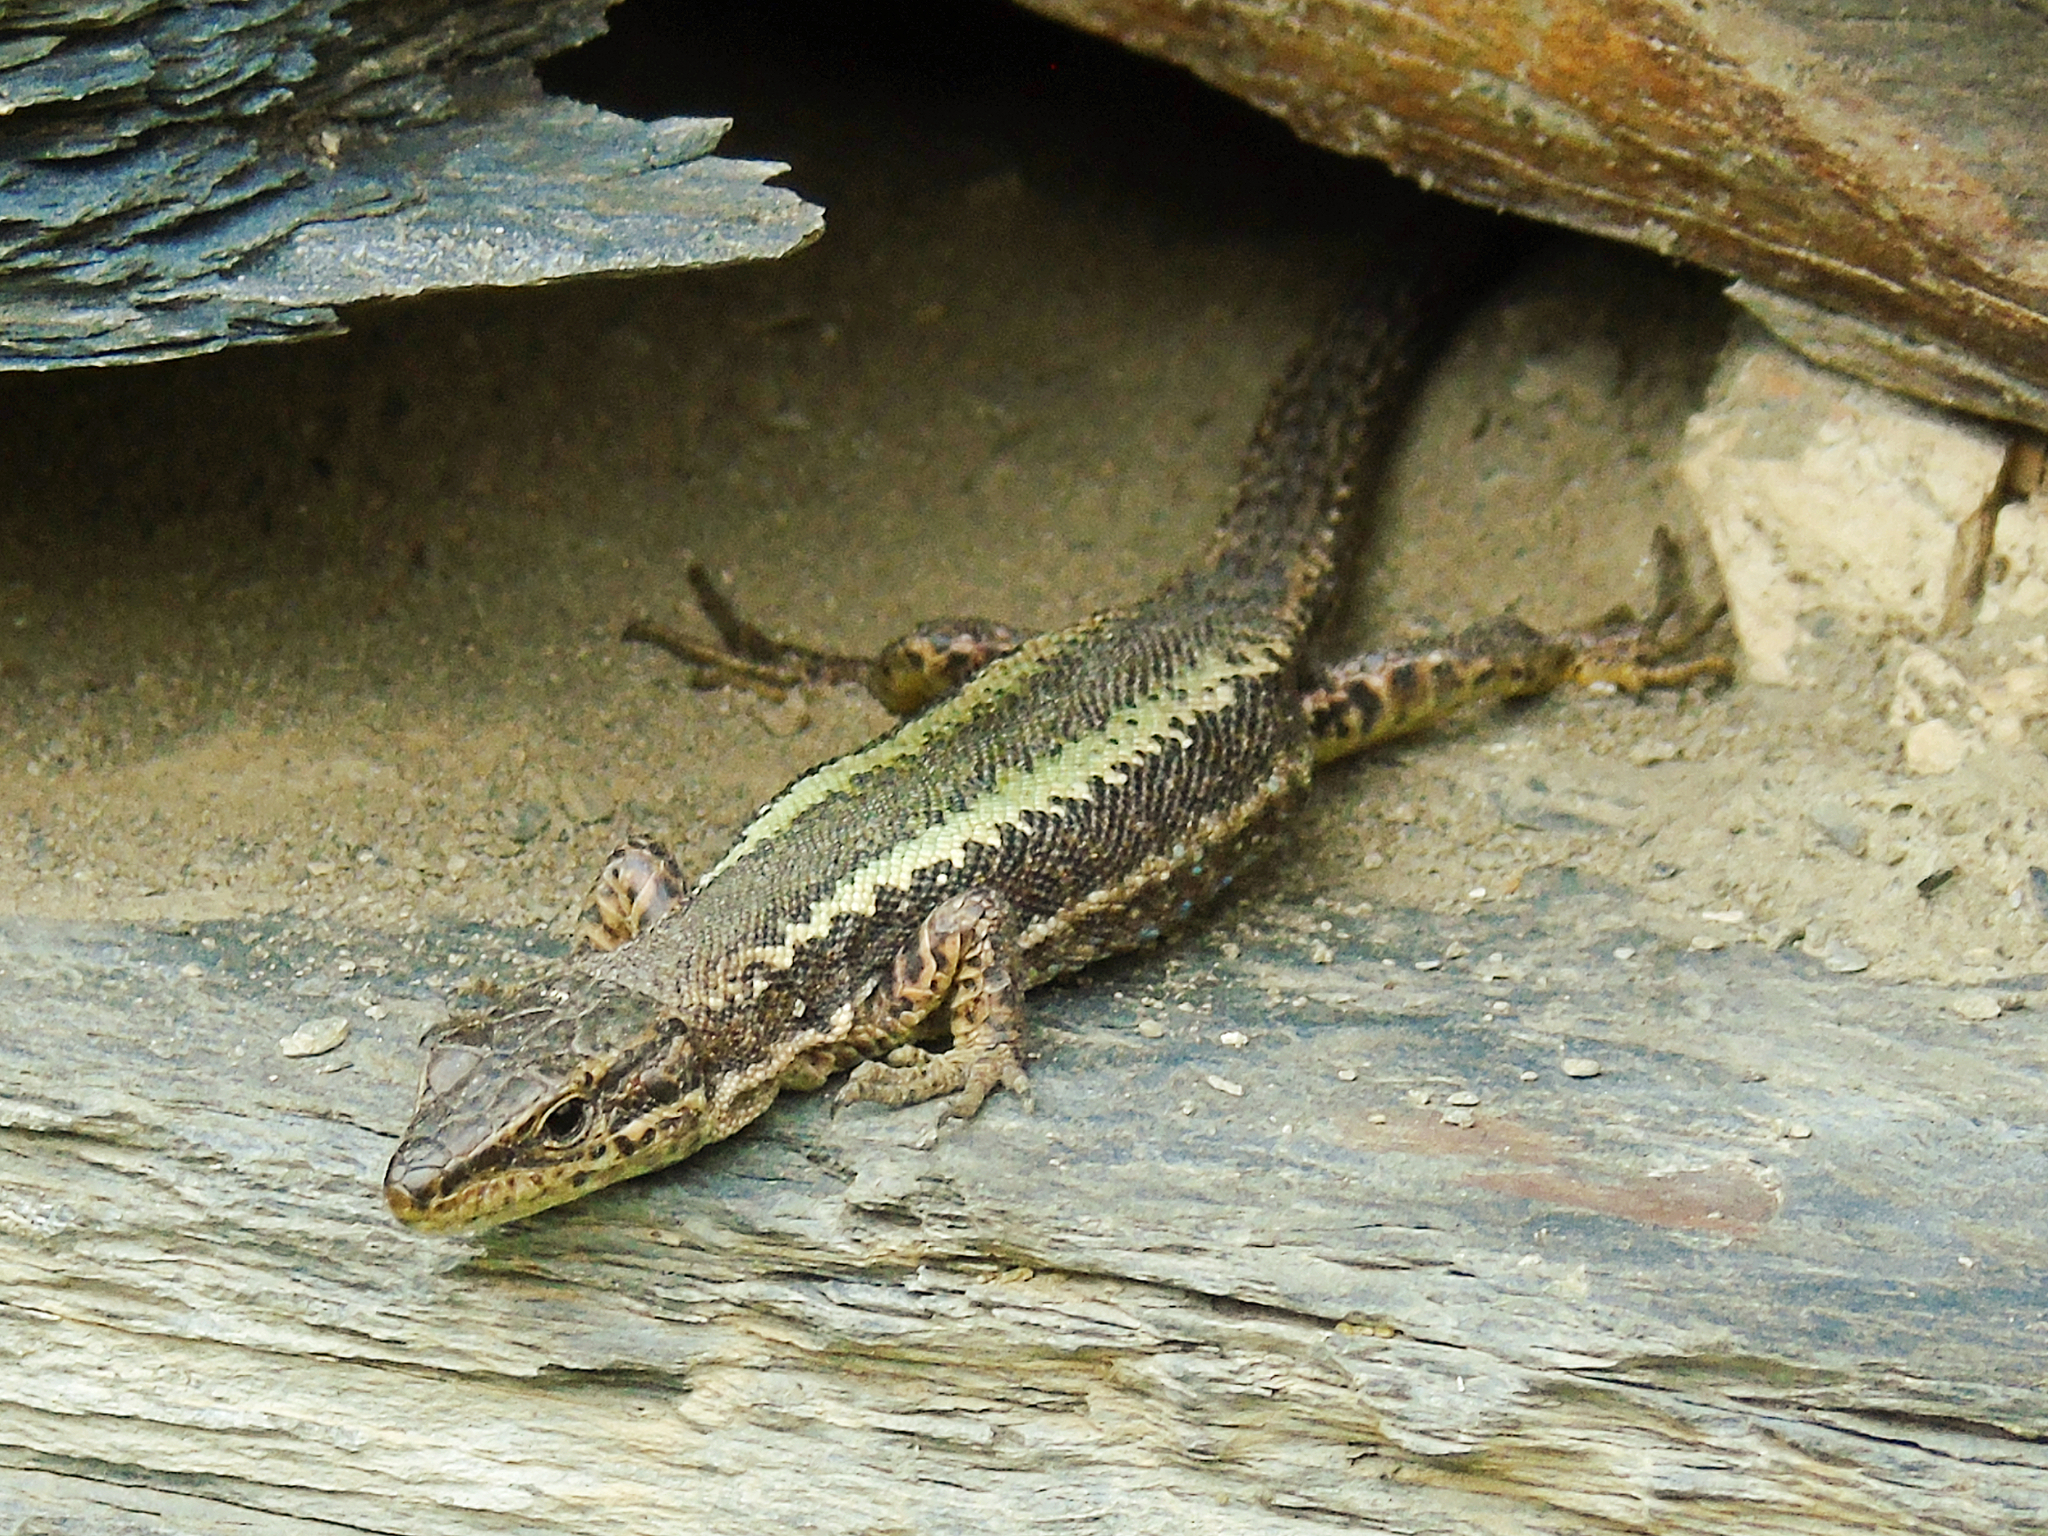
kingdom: Animalia
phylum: Chordata
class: Squamata
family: Lacertidae
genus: Darevskia
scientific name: Darevskia caucasica
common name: Caucasian llzard
